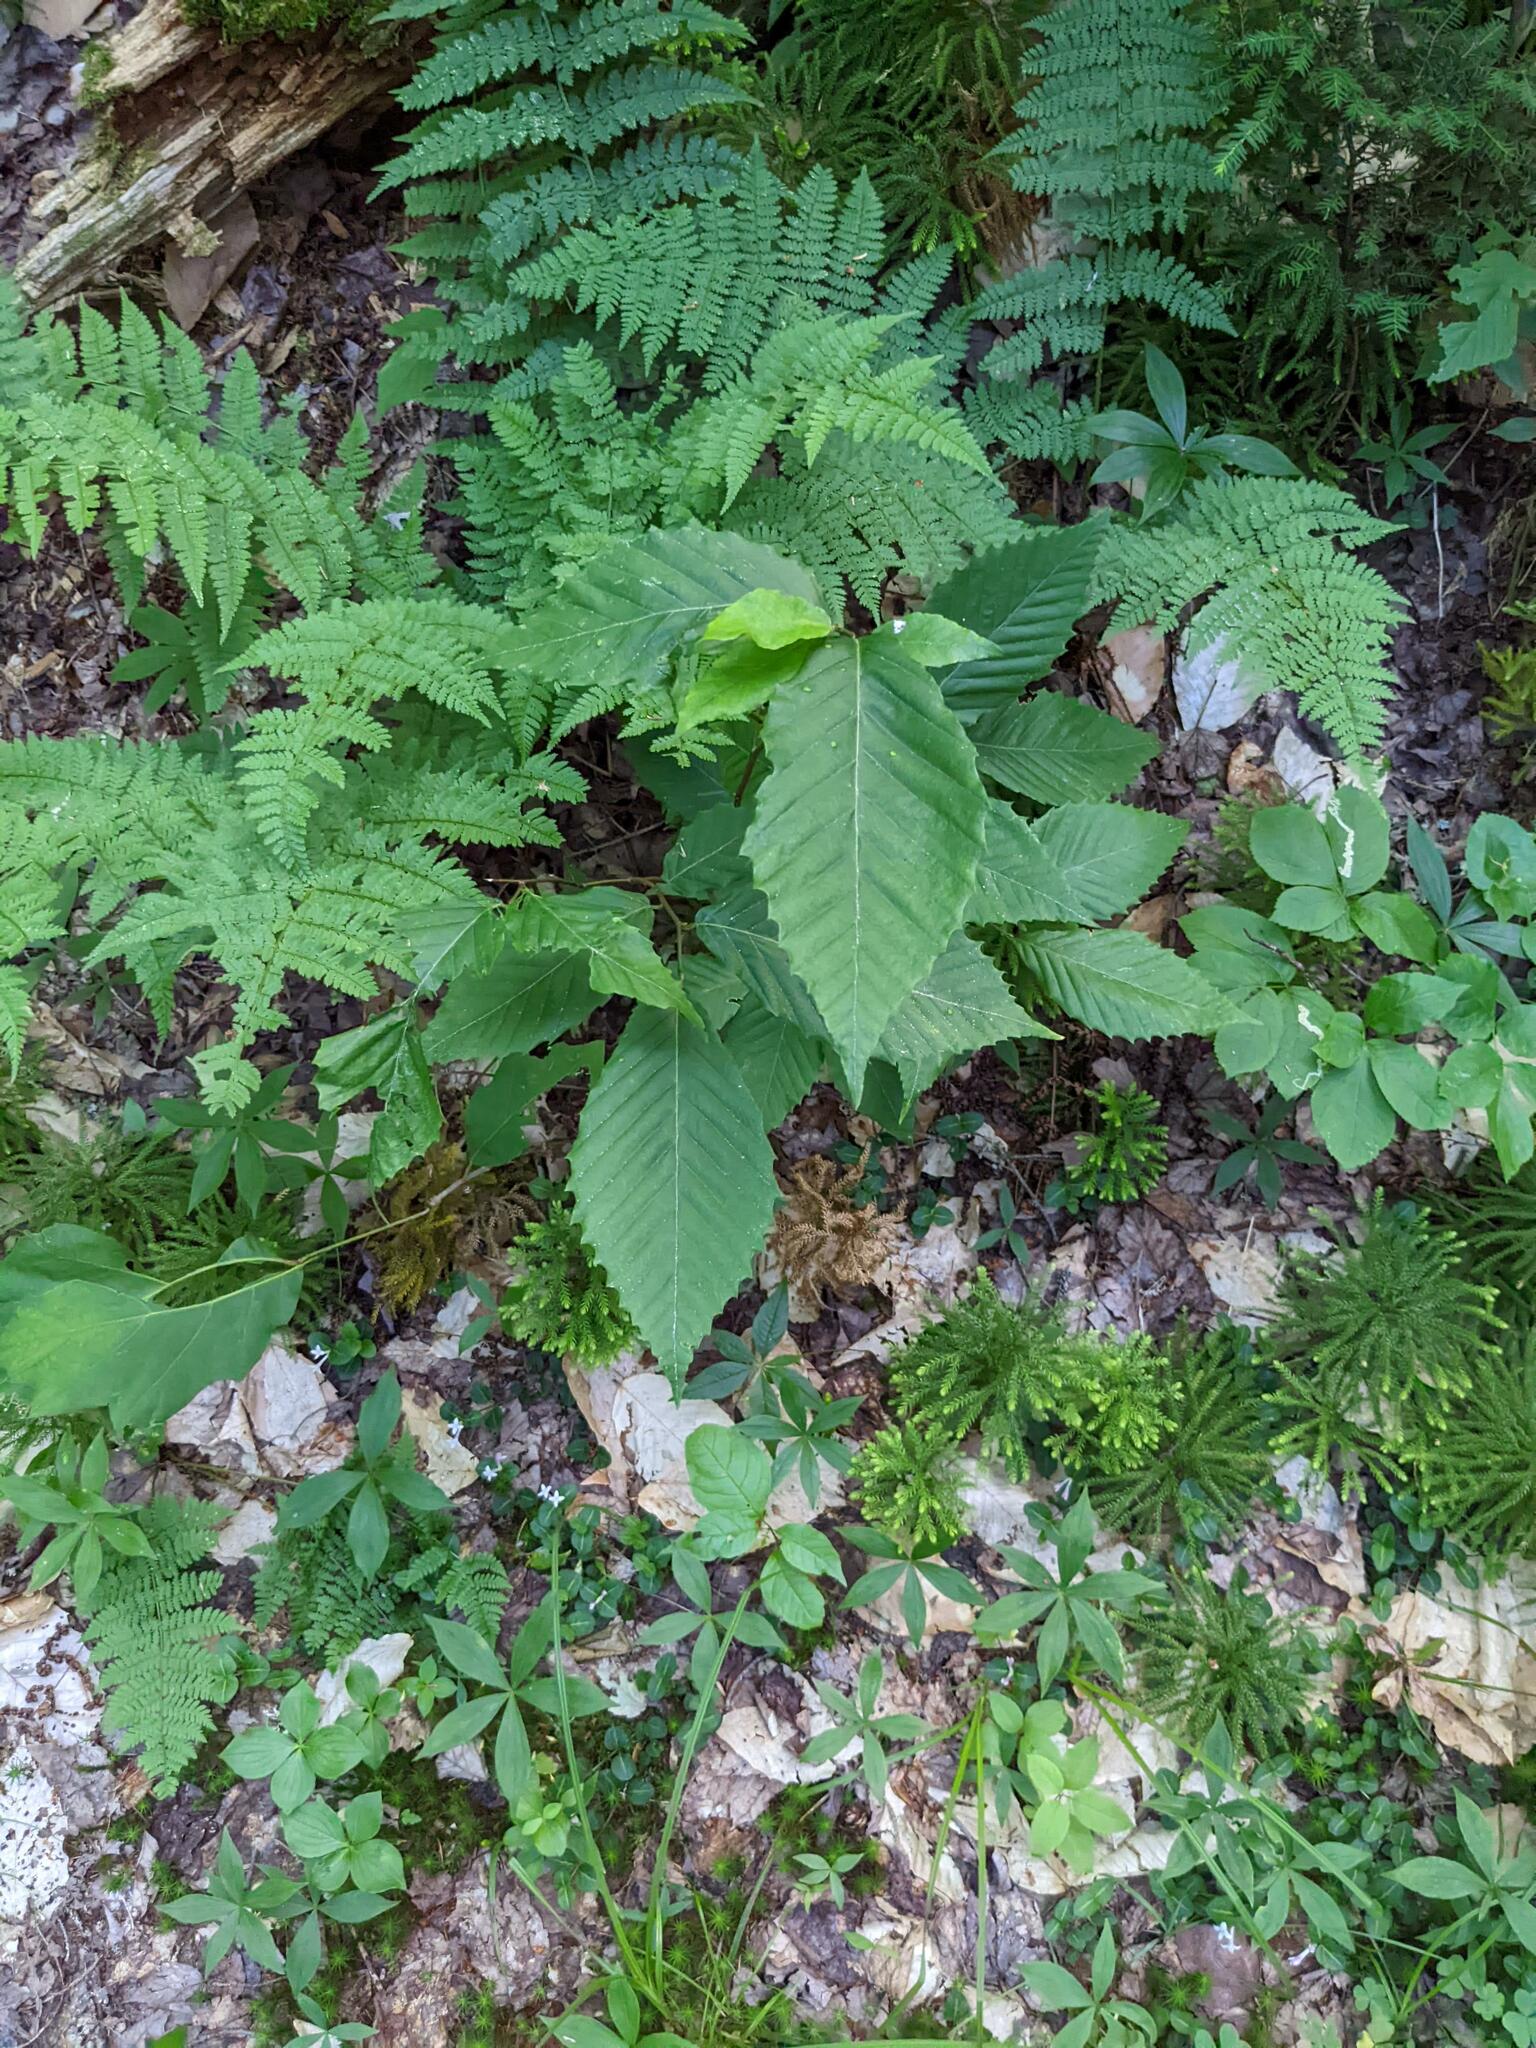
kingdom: Plantae
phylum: Tracheophyta
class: Magnoliopsida
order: Fagales
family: Fagaceae
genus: Fagus
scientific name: Fagus grandifolia
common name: American beech
